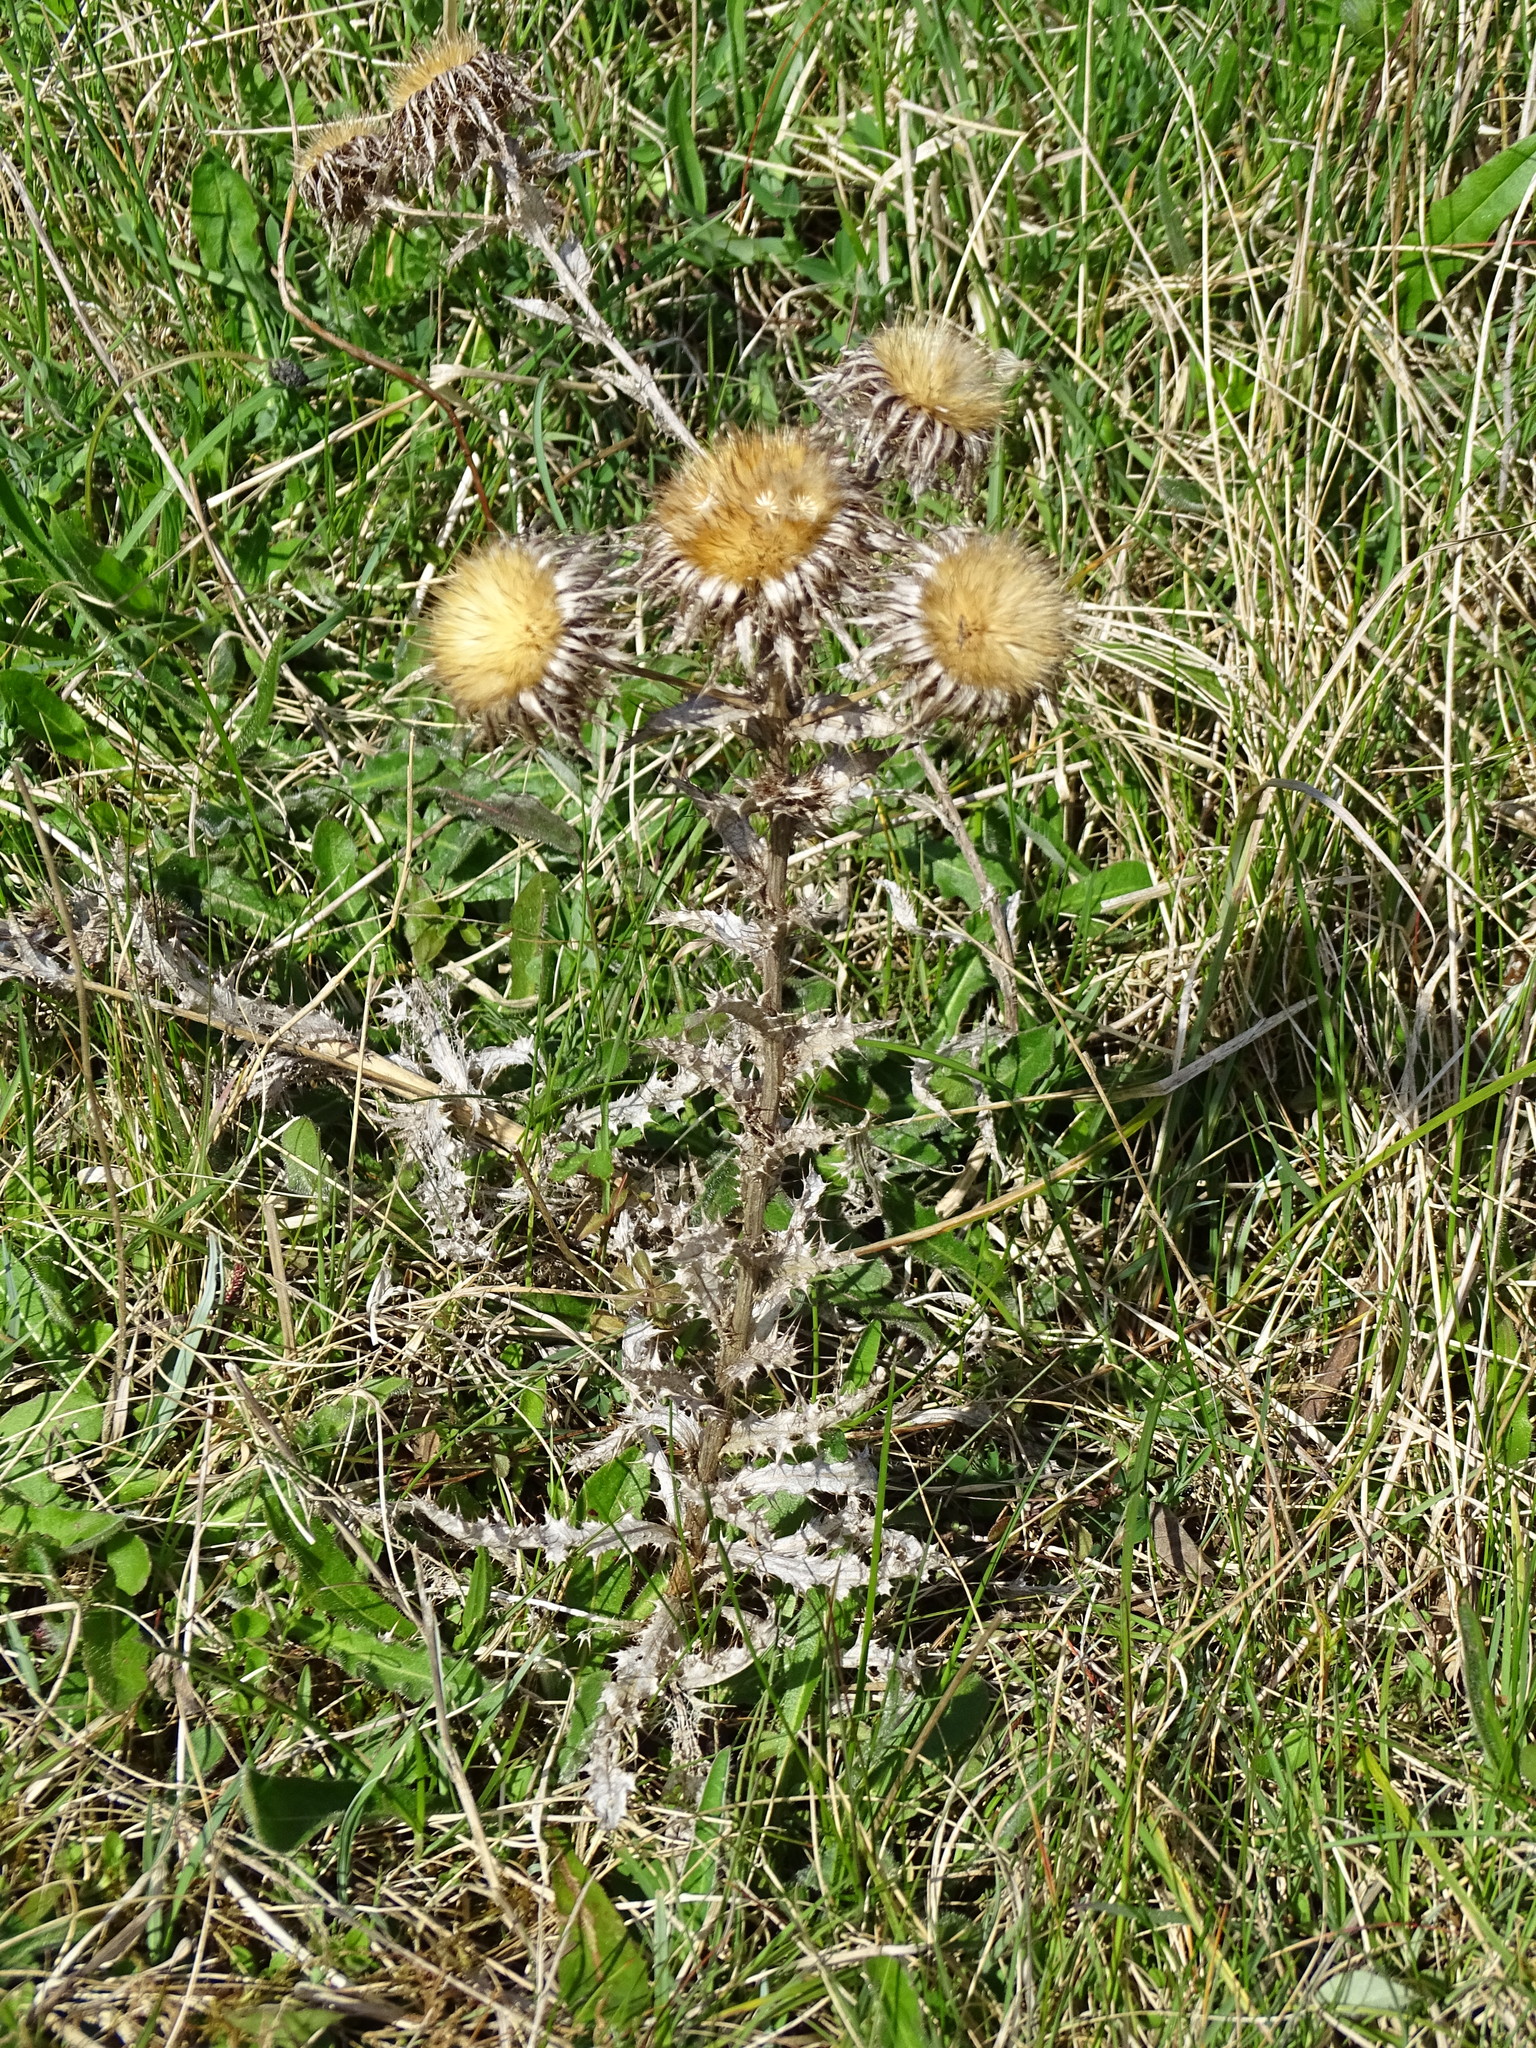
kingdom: Plantae
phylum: Tracheophyta
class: Magnoliopsida
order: Asterales
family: Asteraceae
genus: Carlina
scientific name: Carlina vulgaris
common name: Carline thistle
